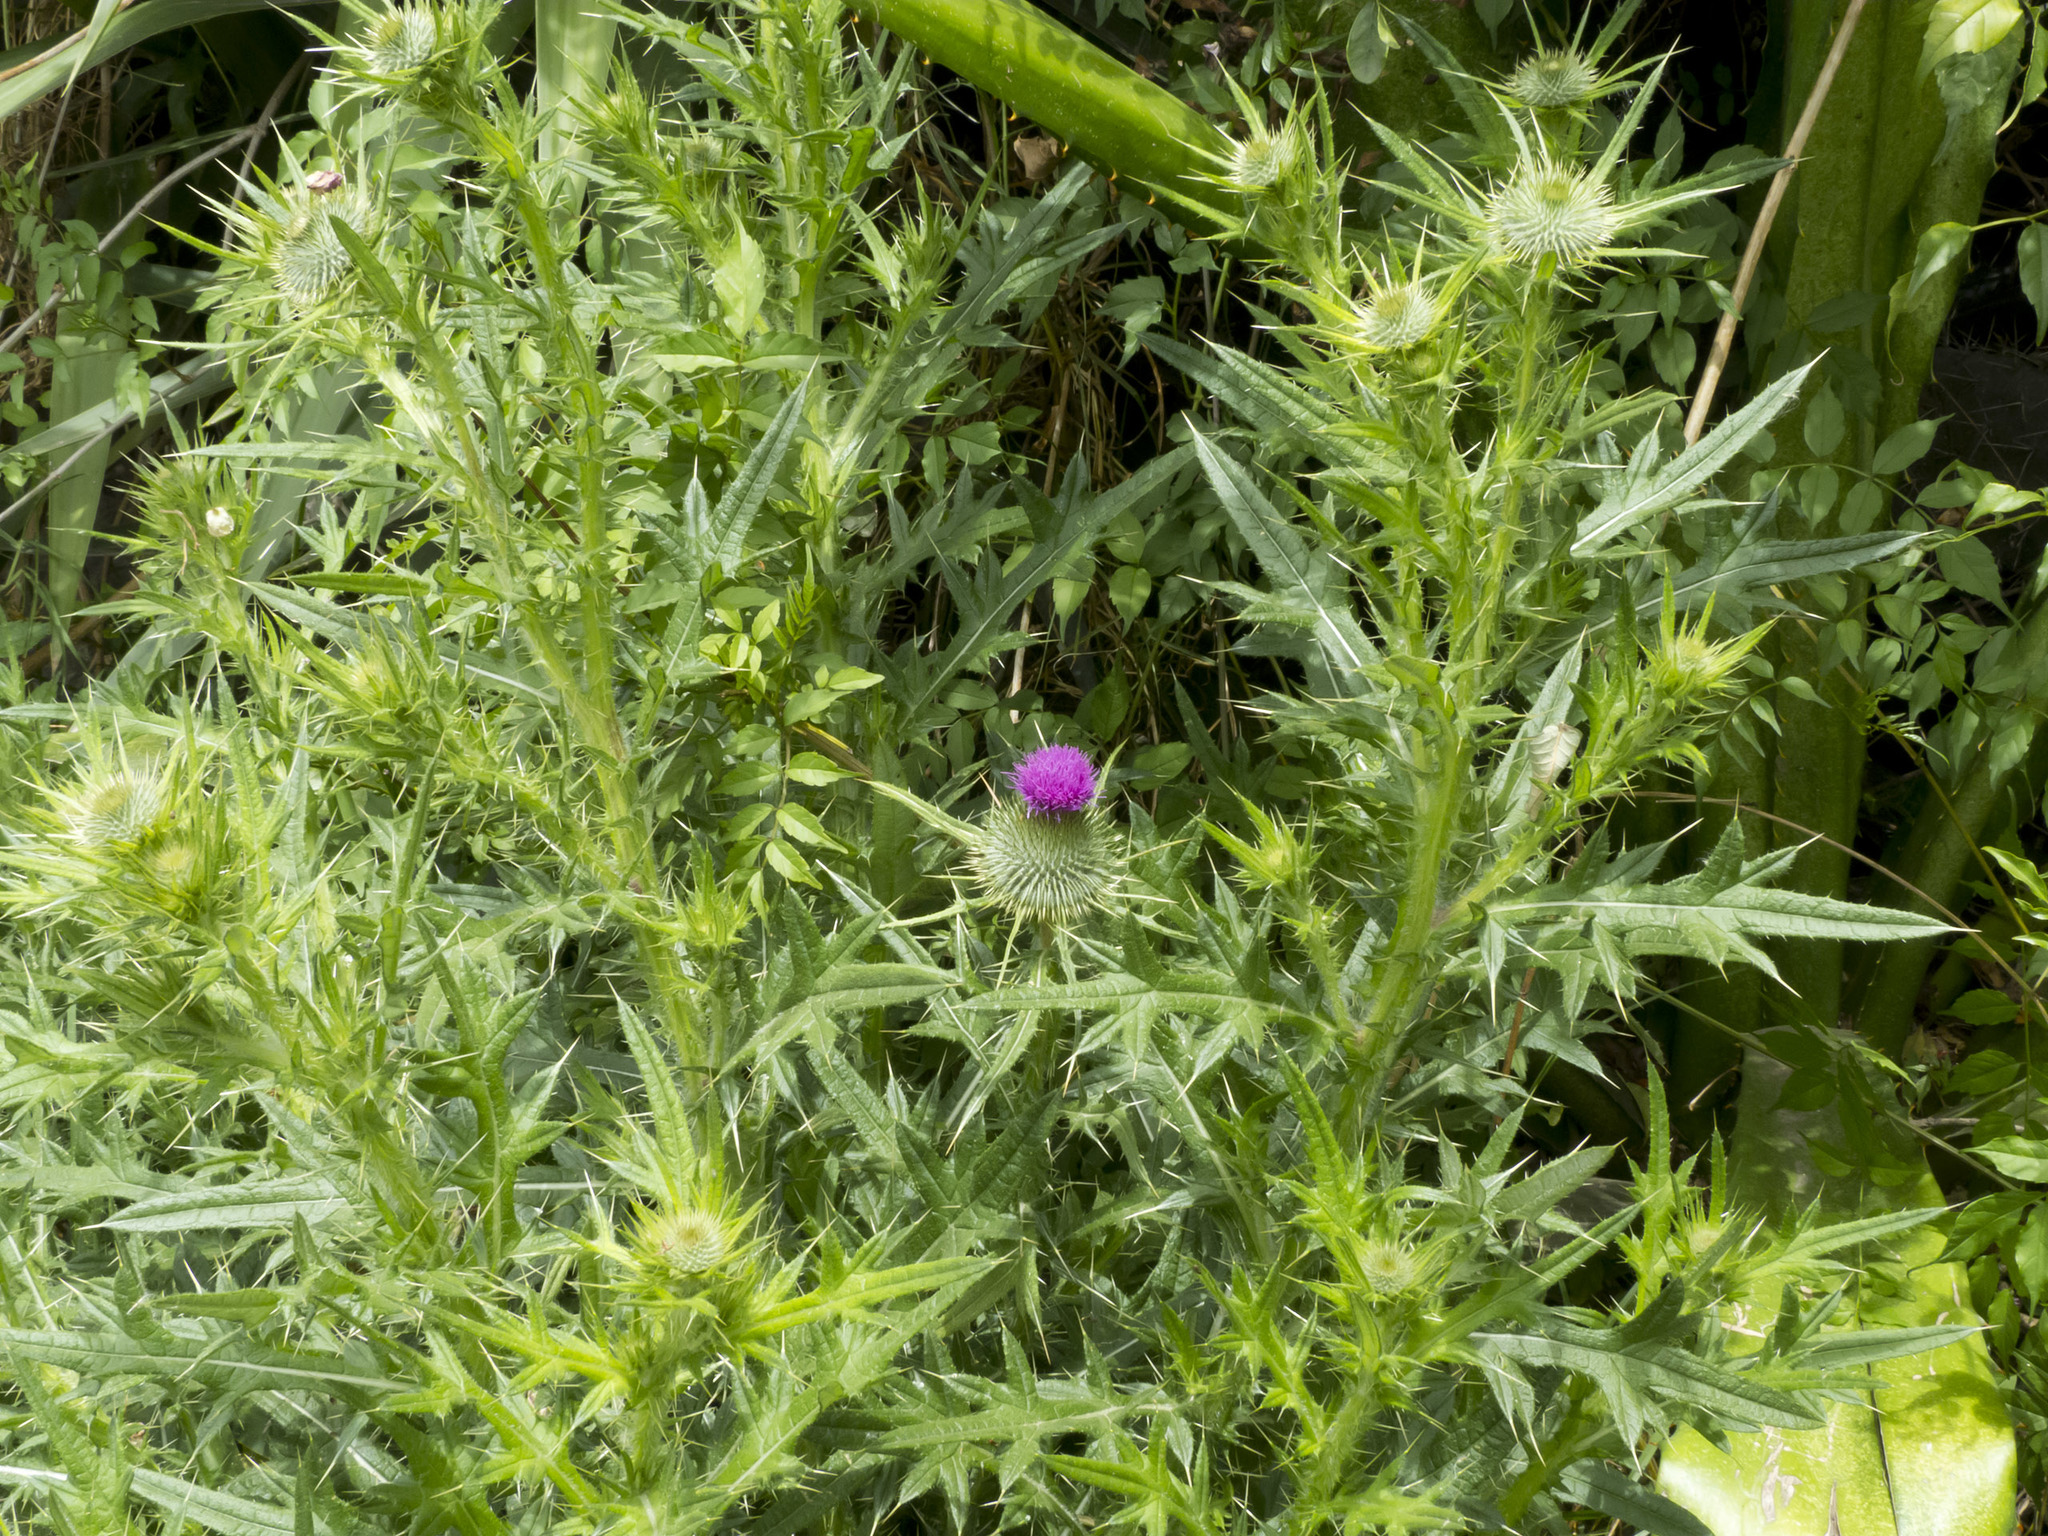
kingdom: Plantae
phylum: Tracheophyta
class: Magnoliopsida
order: Asterales
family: Asteraceae
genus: Cirsium
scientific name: Cirsium vulgare
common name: Bull thistle
